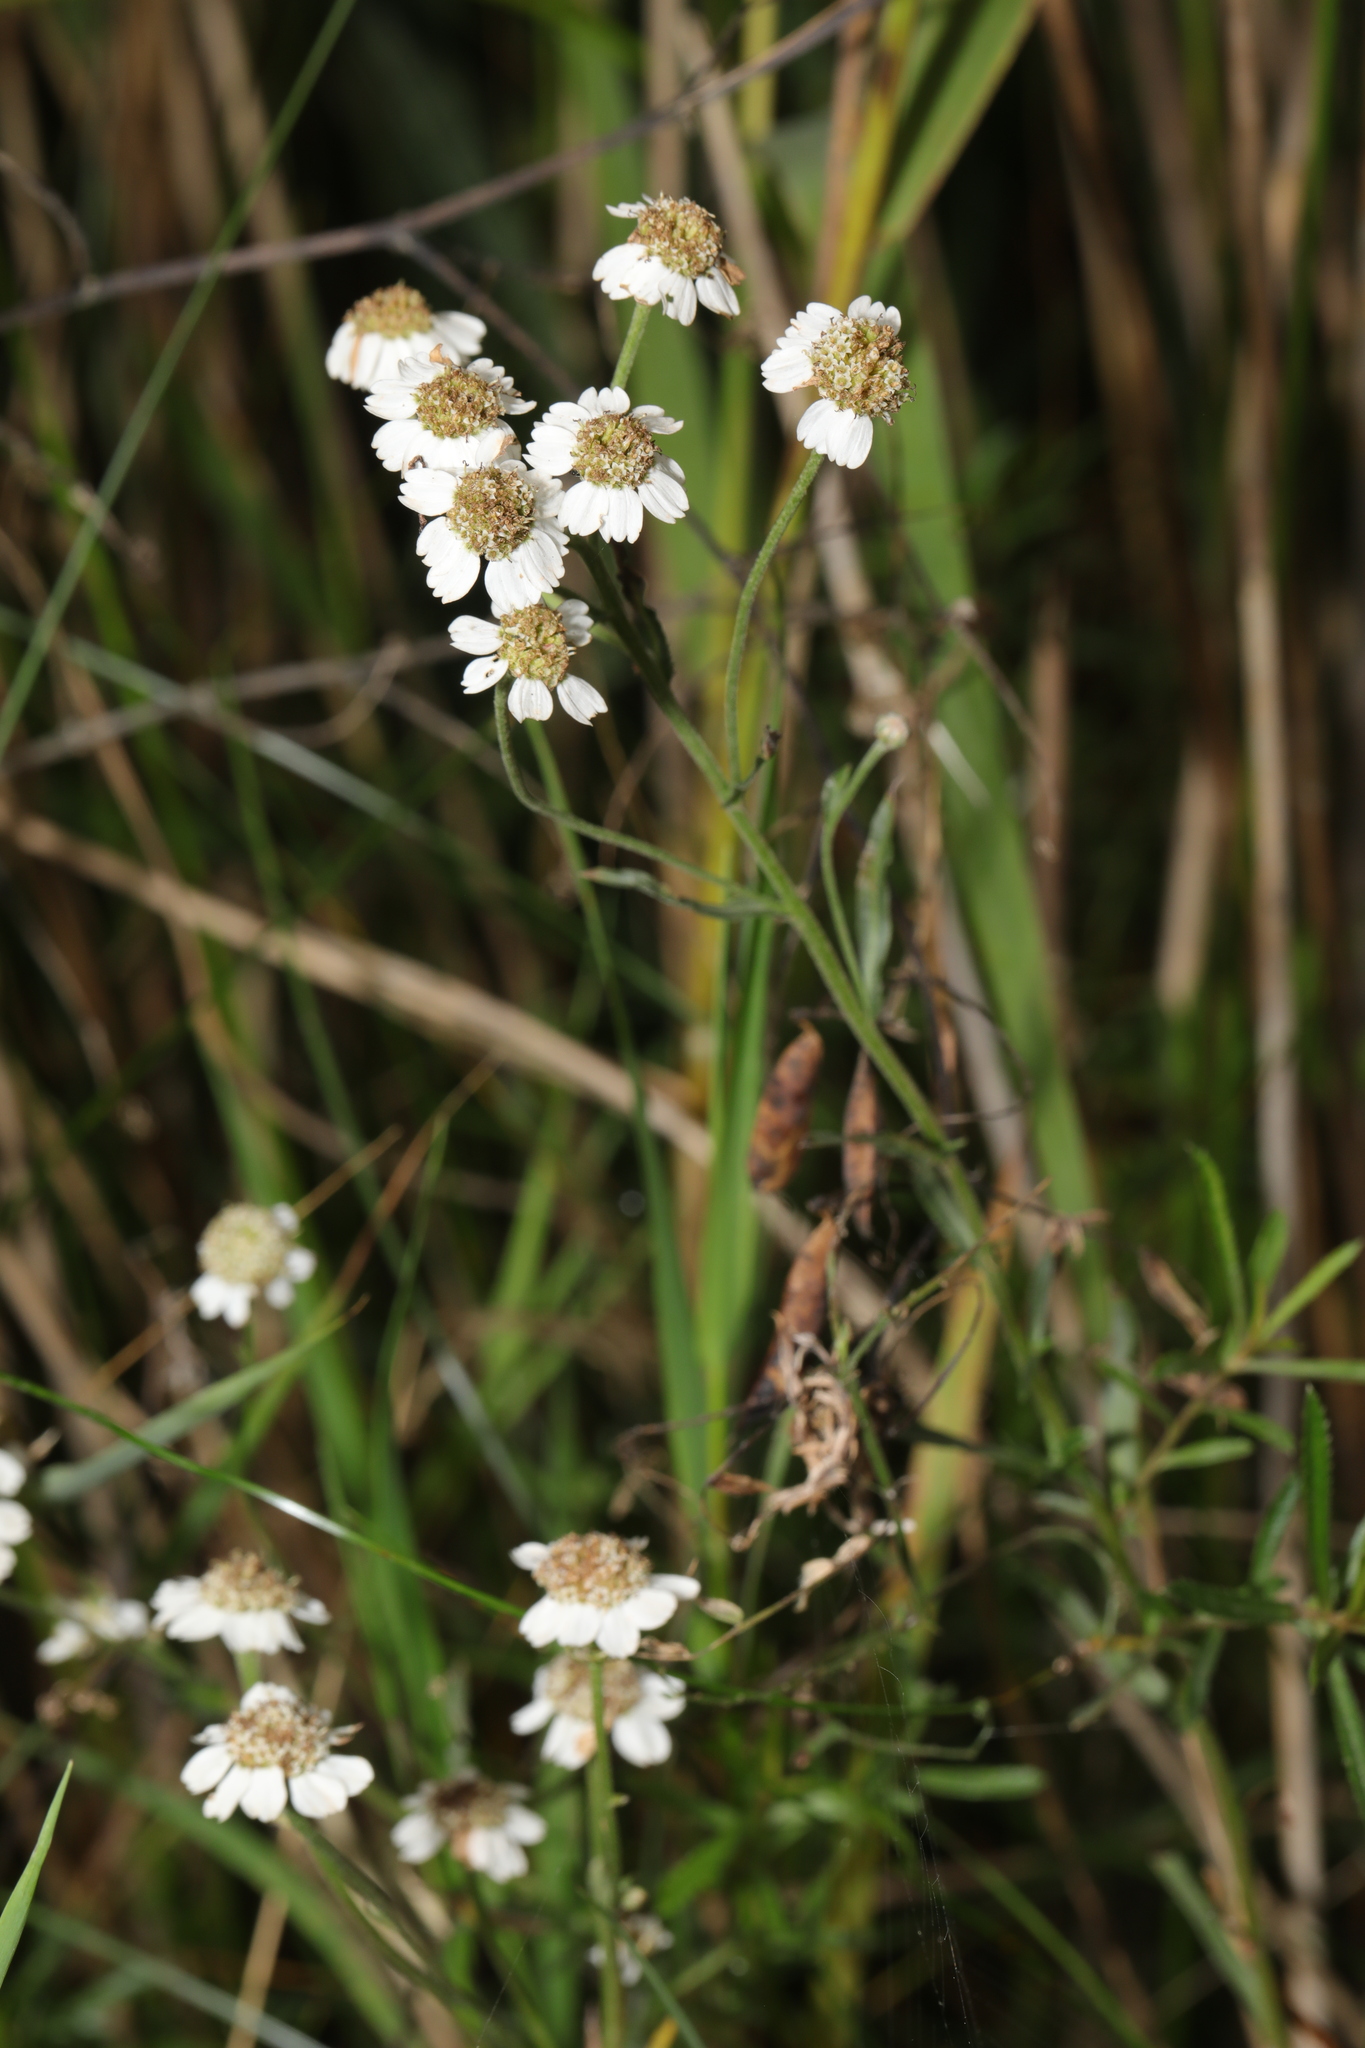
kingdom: Plantae
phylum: Tracheophyta
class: Magnoliopsida
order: Asterales
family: Asteraceae
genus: Achillea
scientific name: Achillea ptarmica
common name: Sneezeweed
